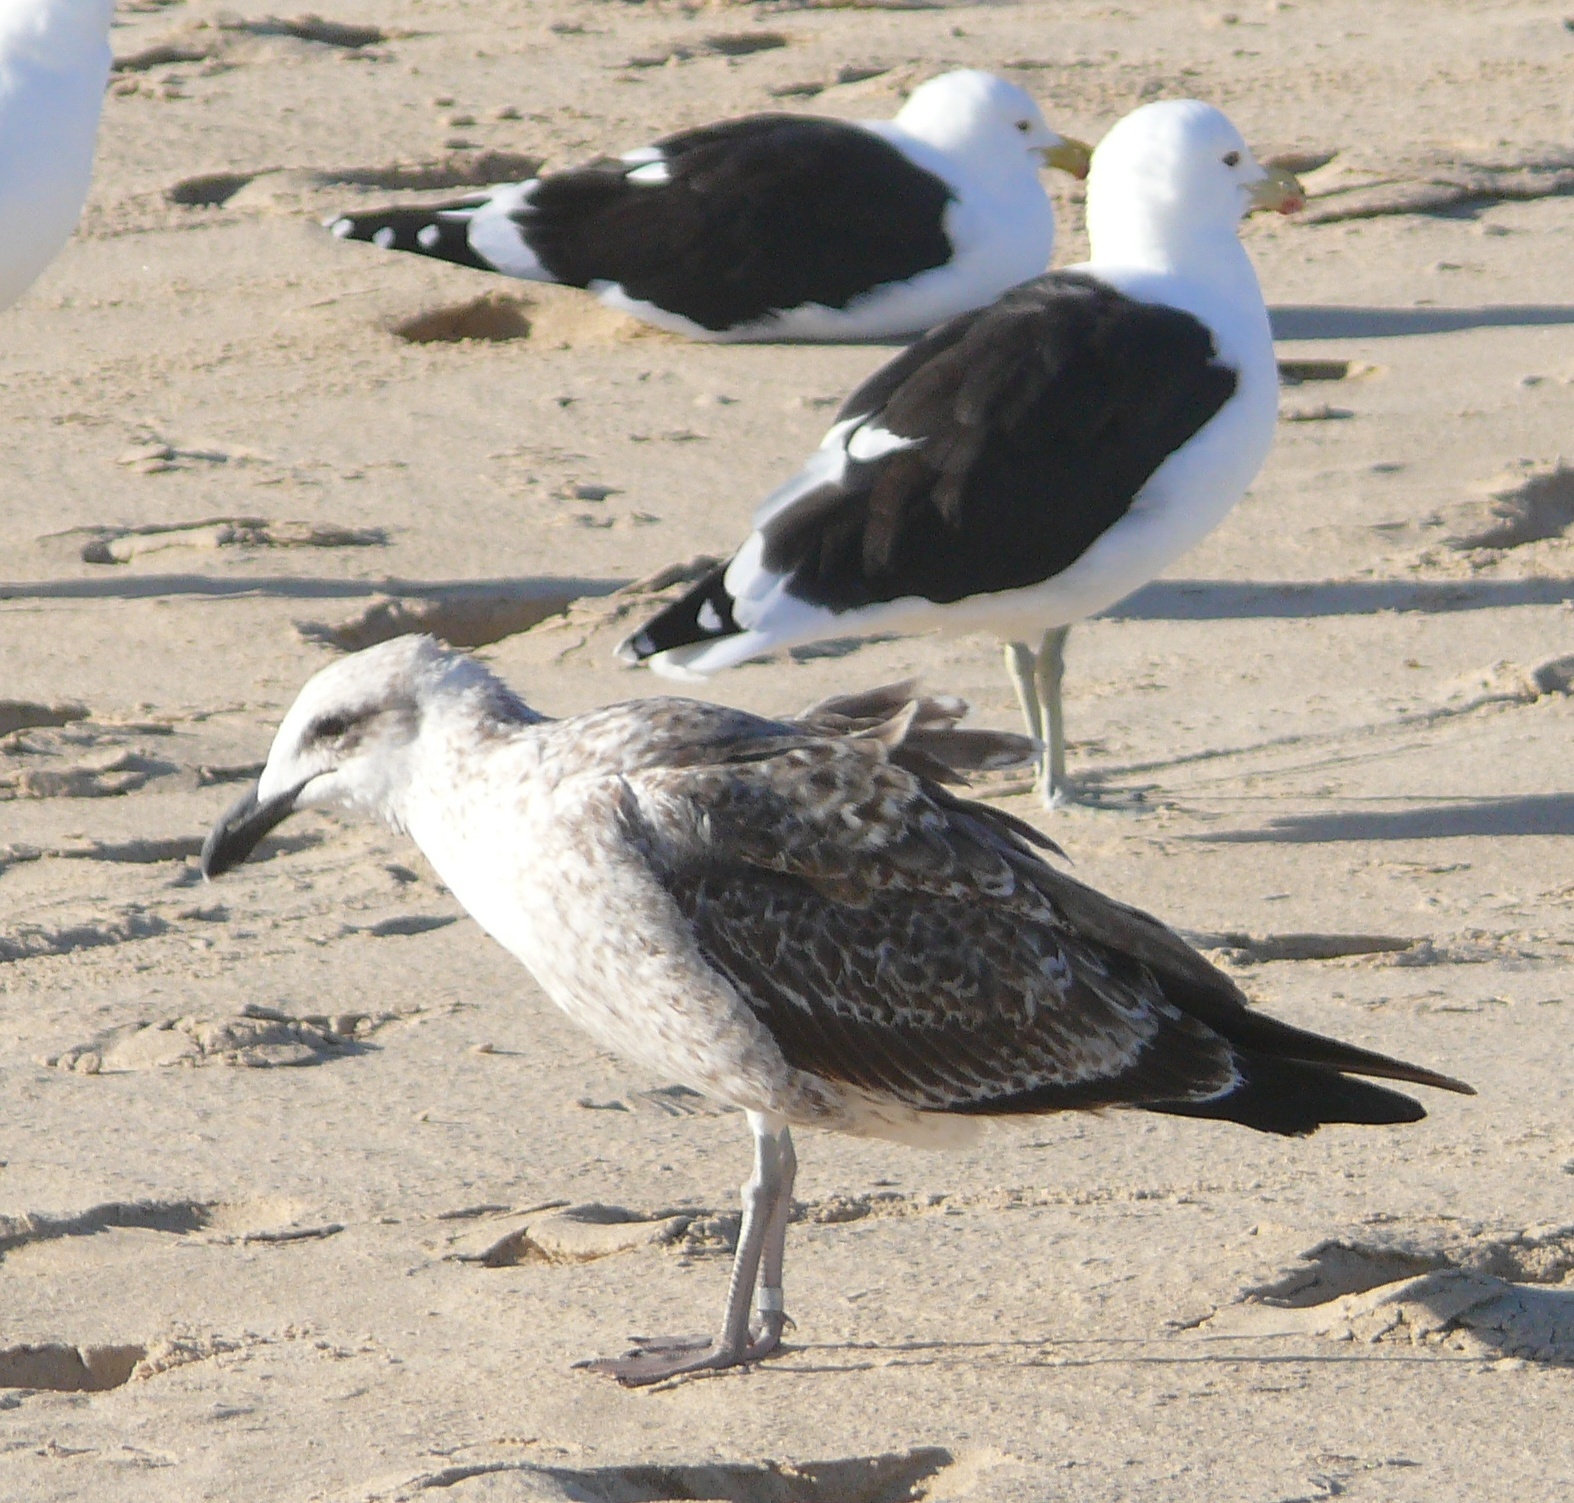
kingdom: Animalia
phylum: Chordata
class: Aves
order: Charadriiformes
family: Laridae
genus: Larus
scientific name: Larus dominicanus
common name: Kelp gull
